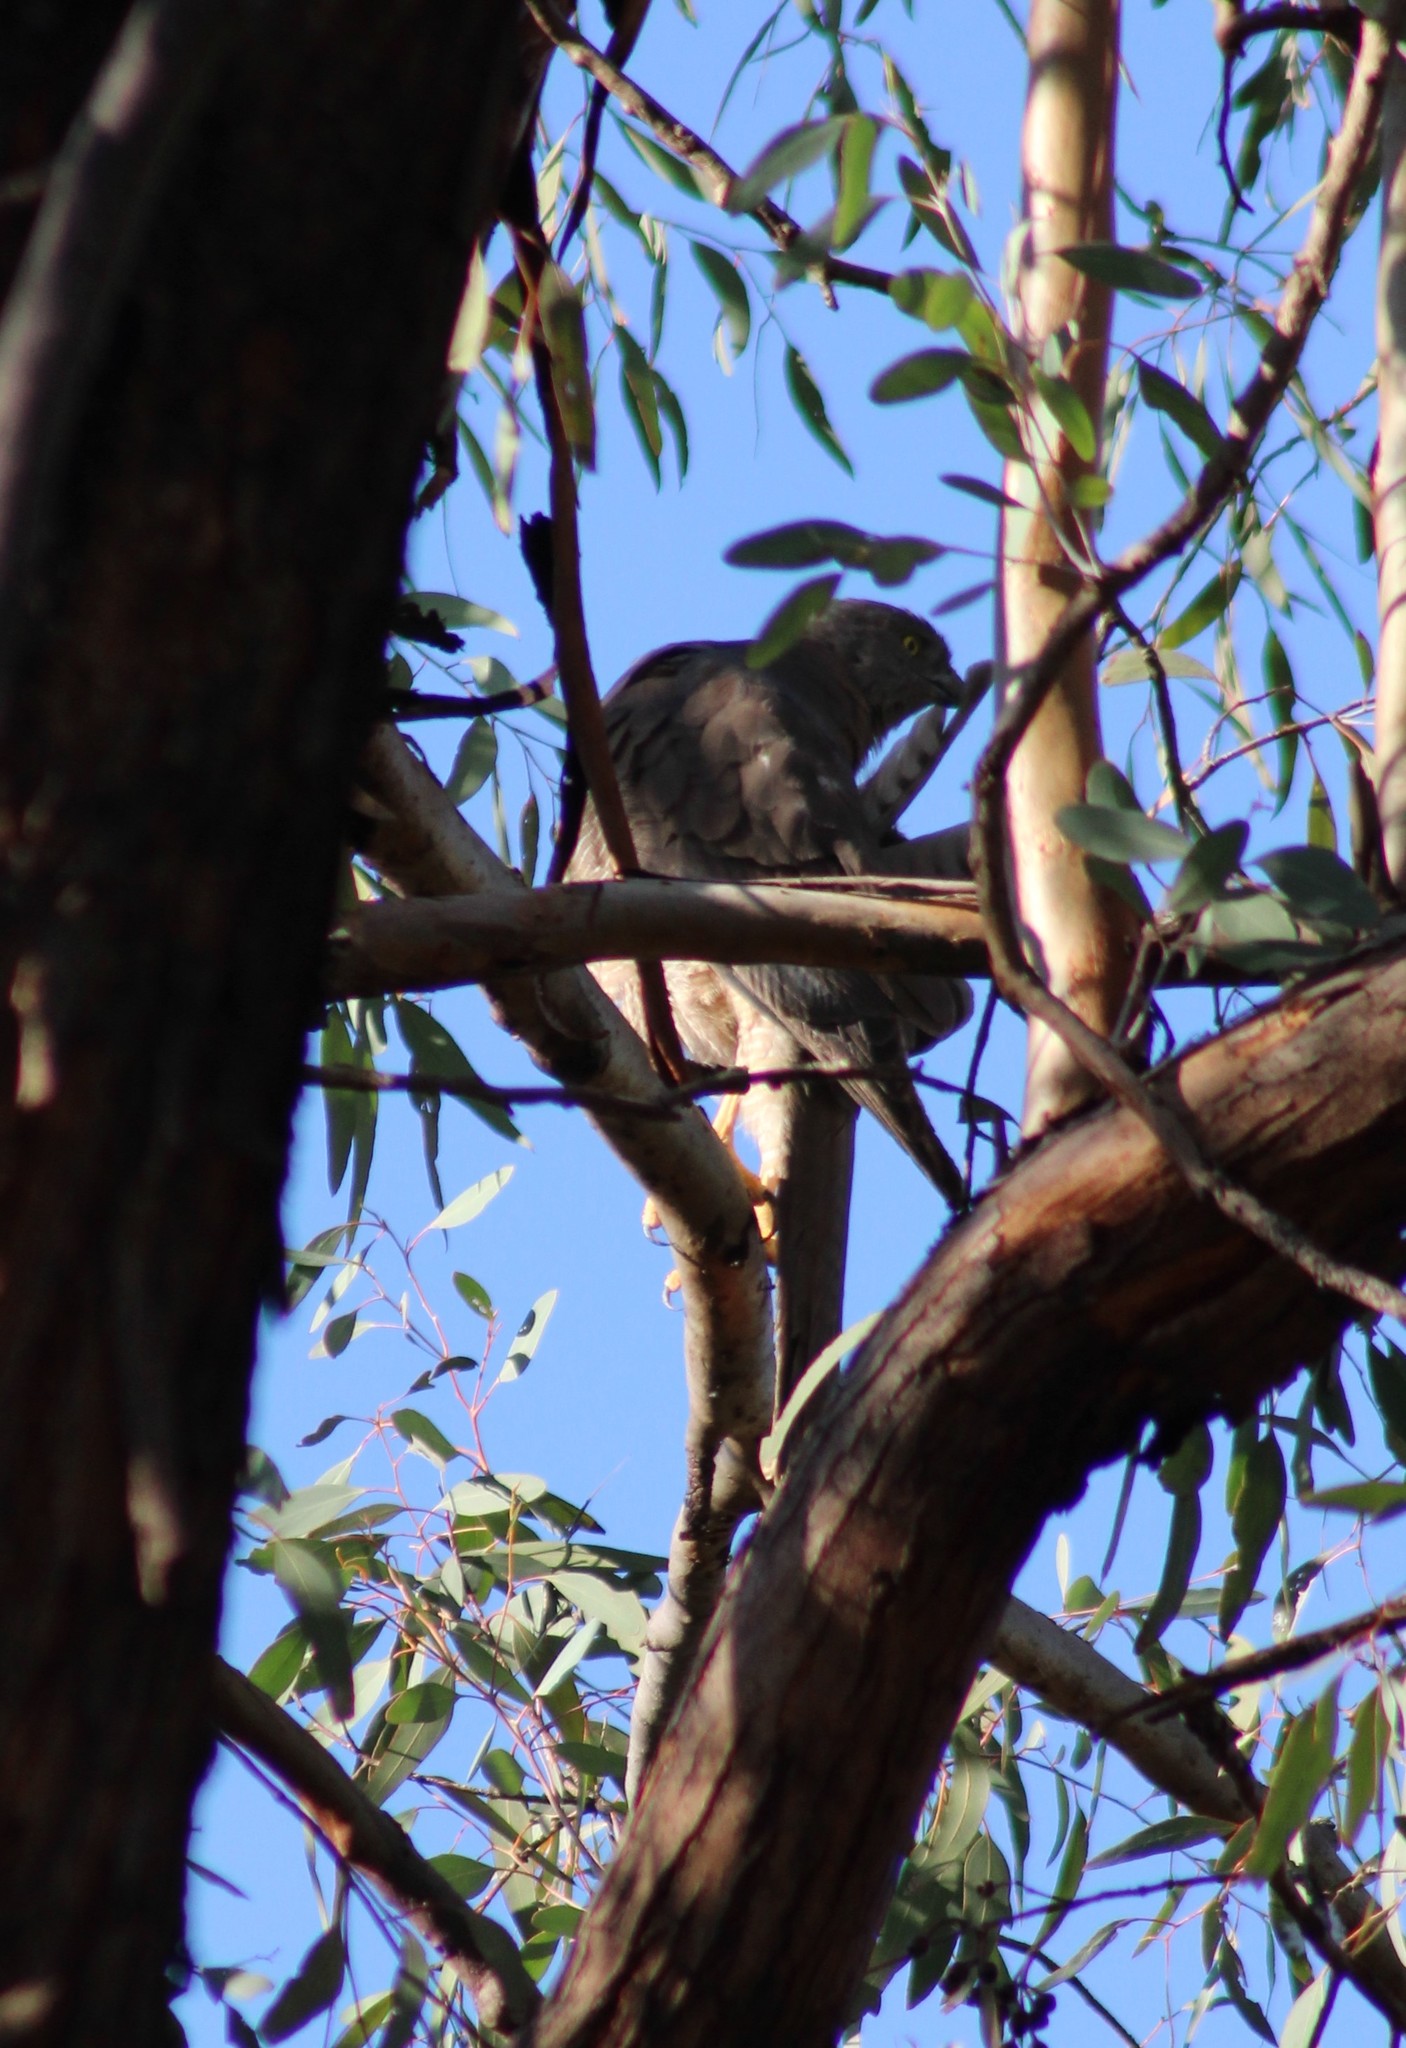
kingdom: Animalia
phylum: Chordata
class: Aves
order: Accipitriformes
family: Accipitridae
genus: Accipiter
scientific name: Accipiter fasciatus
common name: Brown goshawk
